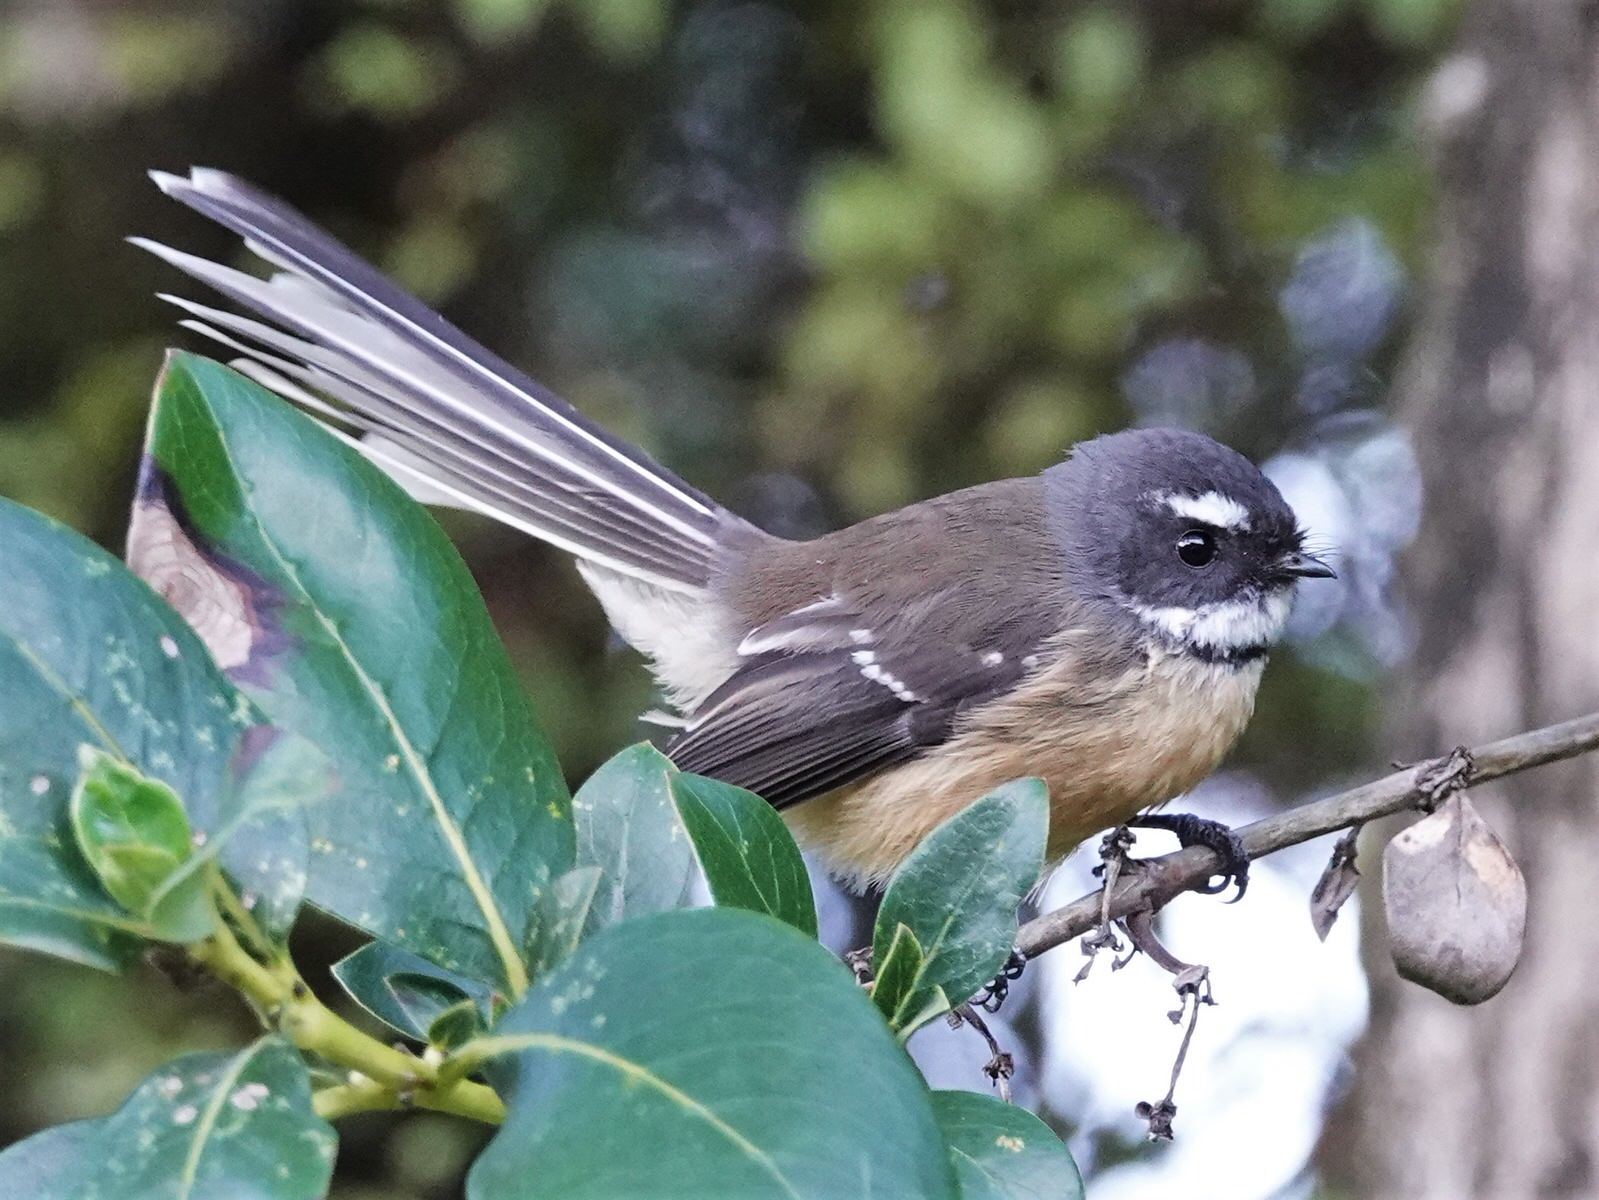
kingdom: Animalia
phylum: Chordata
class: Aves
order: Passeriformes
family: Rhipiduridae
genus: Rhipidura
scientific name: Rhipidura fuliginosa
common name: New zealand fantail
